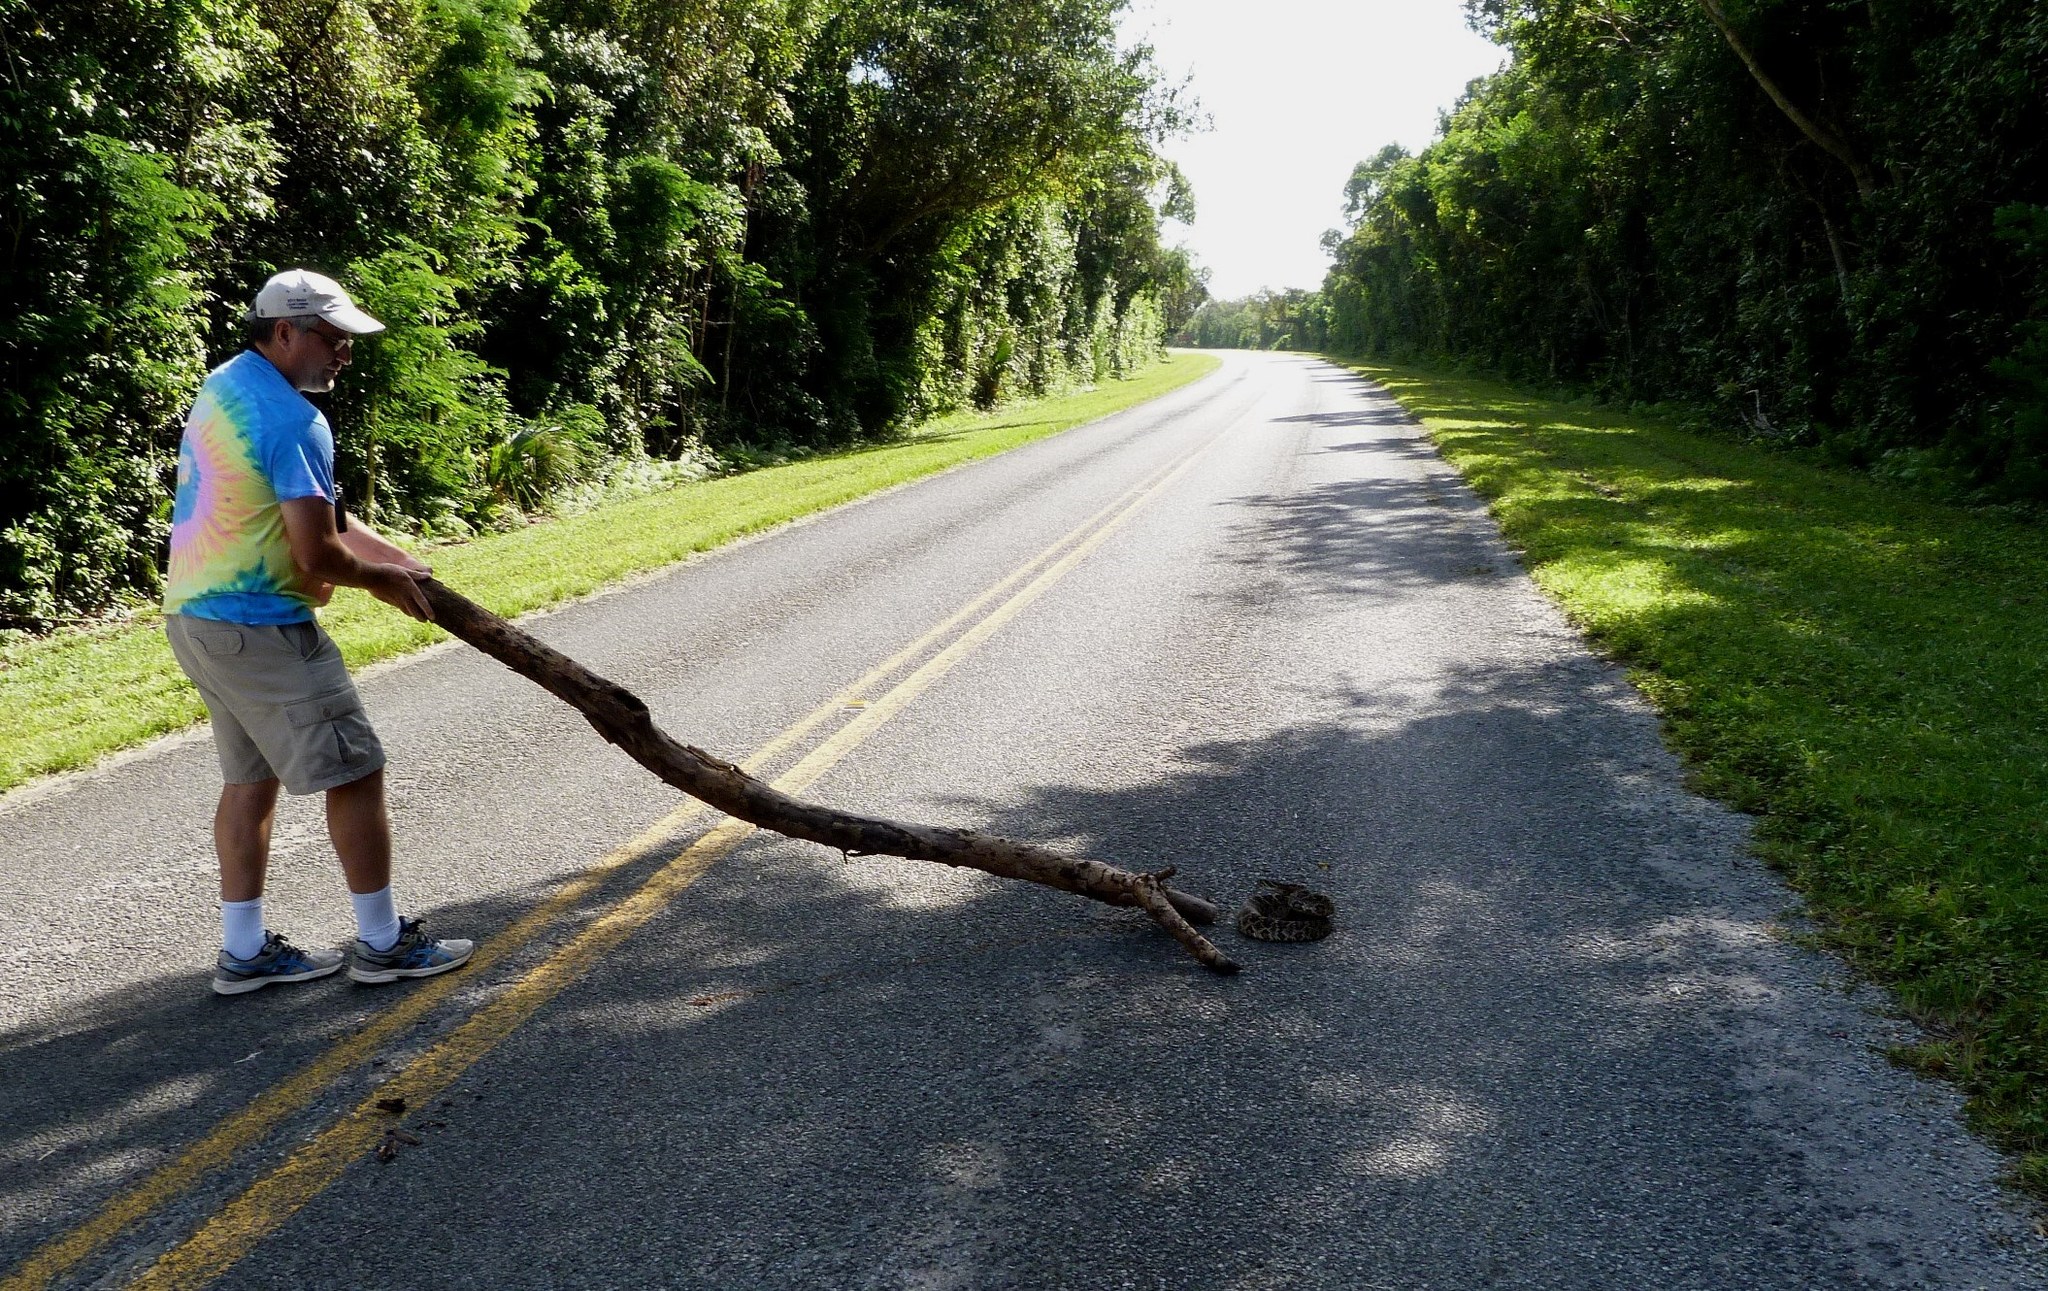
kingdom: Animalia
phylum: Chordata
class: Squamata
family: Viperidae
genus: Crotalus
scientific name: Crotalus adamanteus
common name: Eastern diamondback rattlesnake
